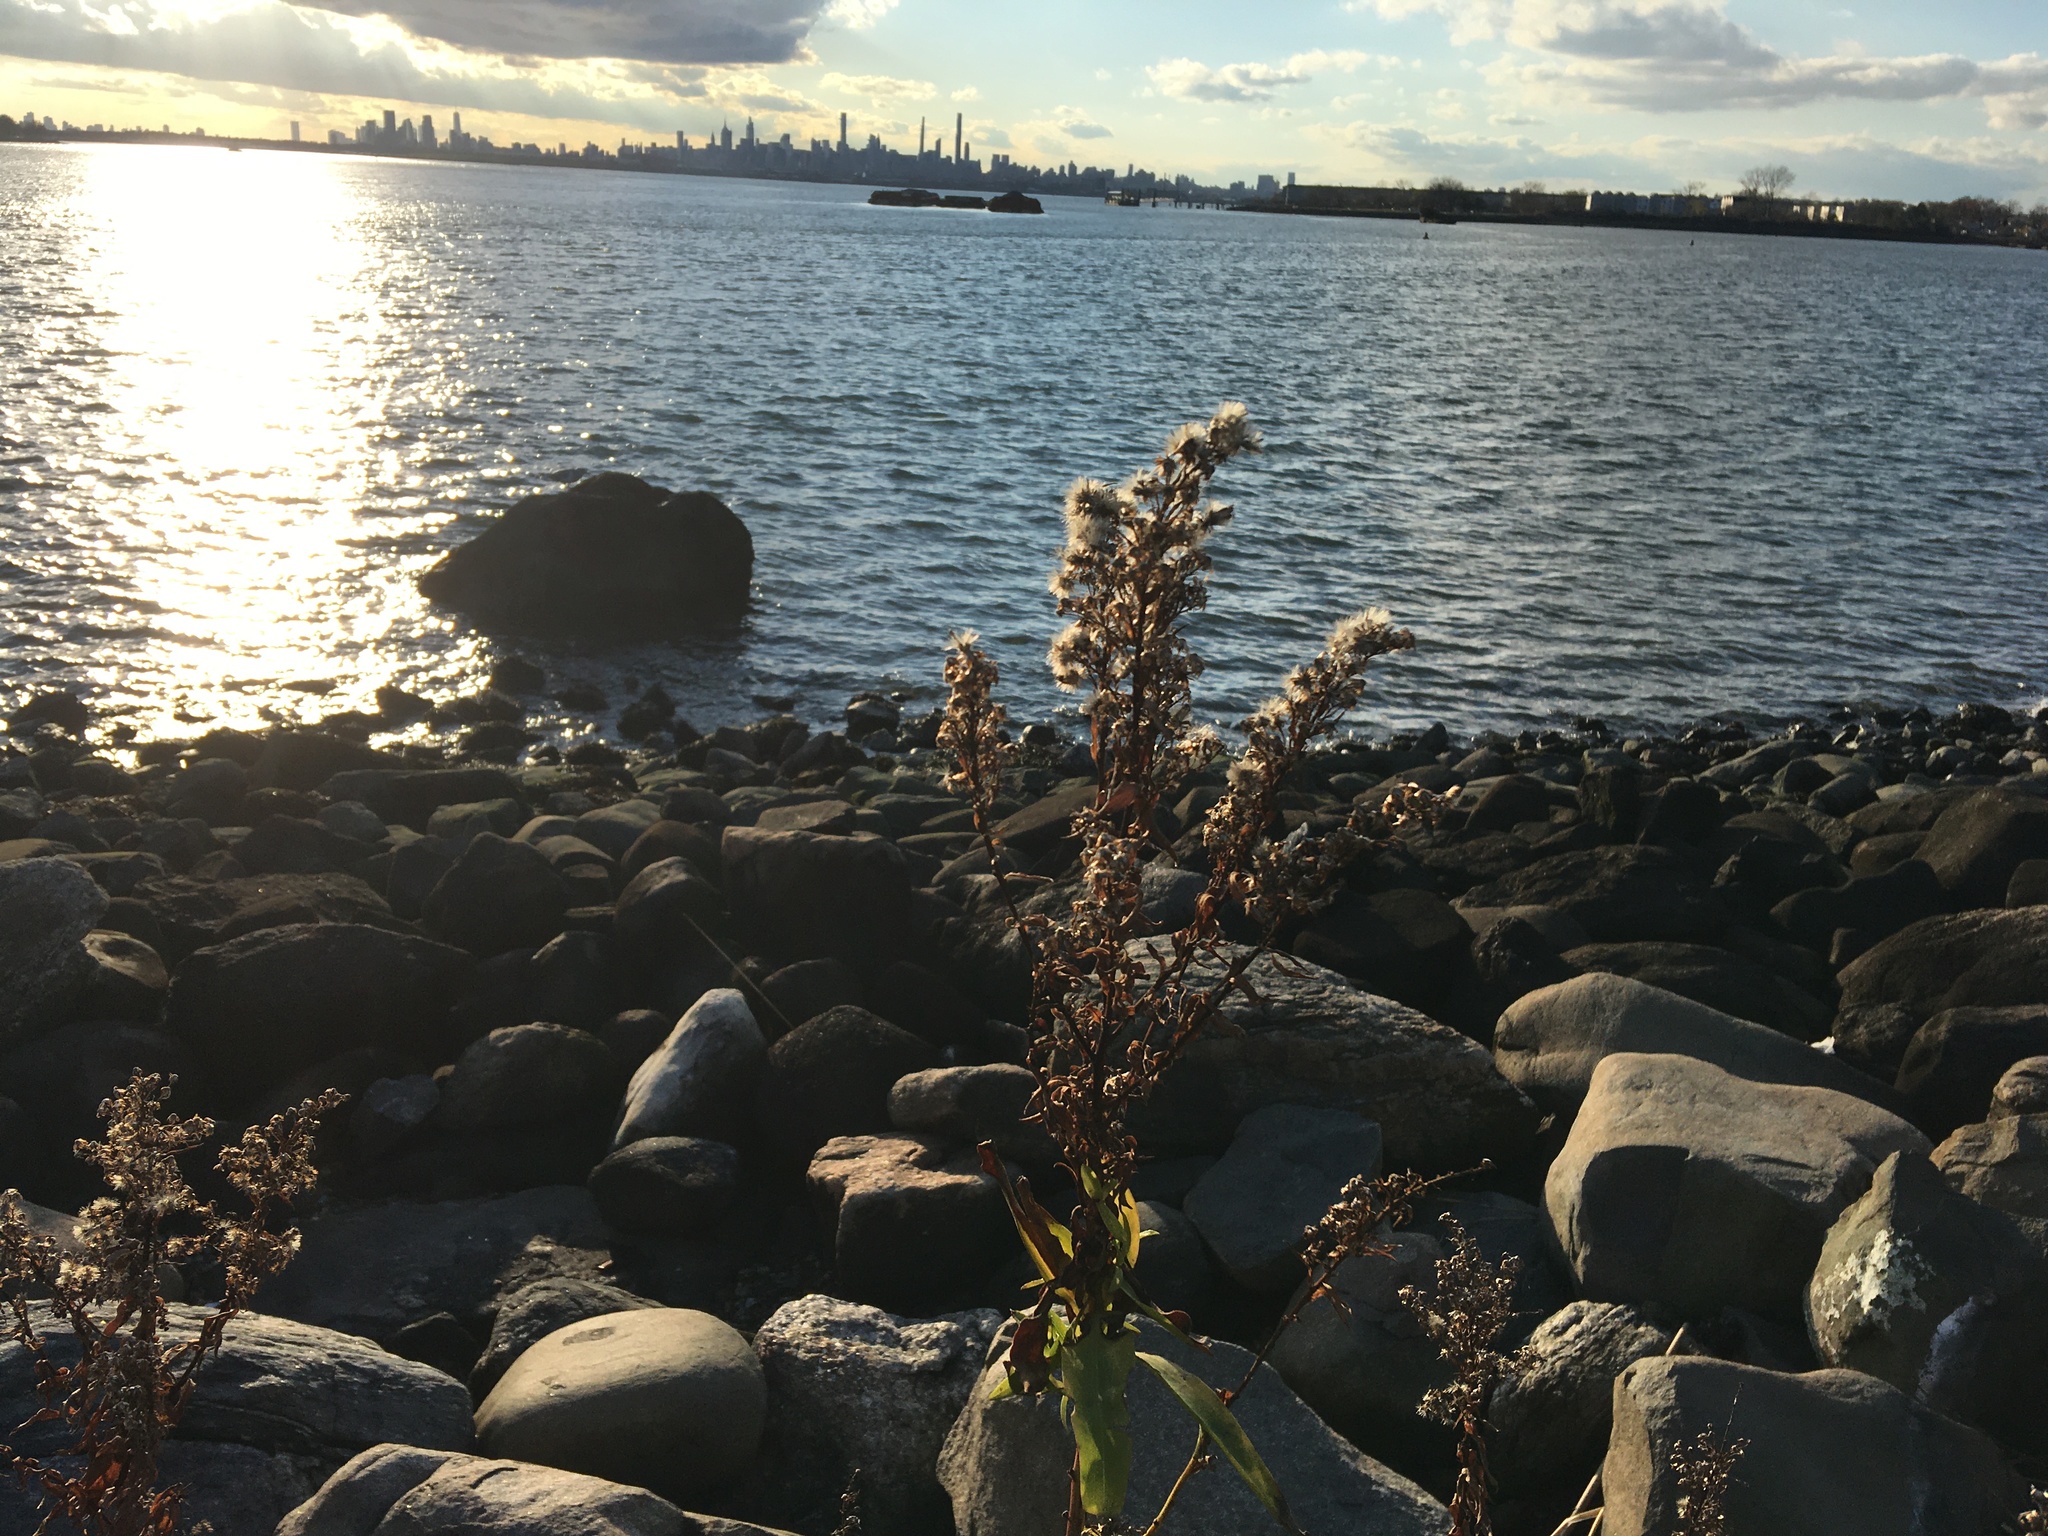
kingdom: Plantae
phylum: Tracheophyta
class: Magnoliopsida
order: Asterales
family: Asteraceae
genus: Solidago
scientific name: Solidago sempervirens
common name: Salt-marsh goldenrod
